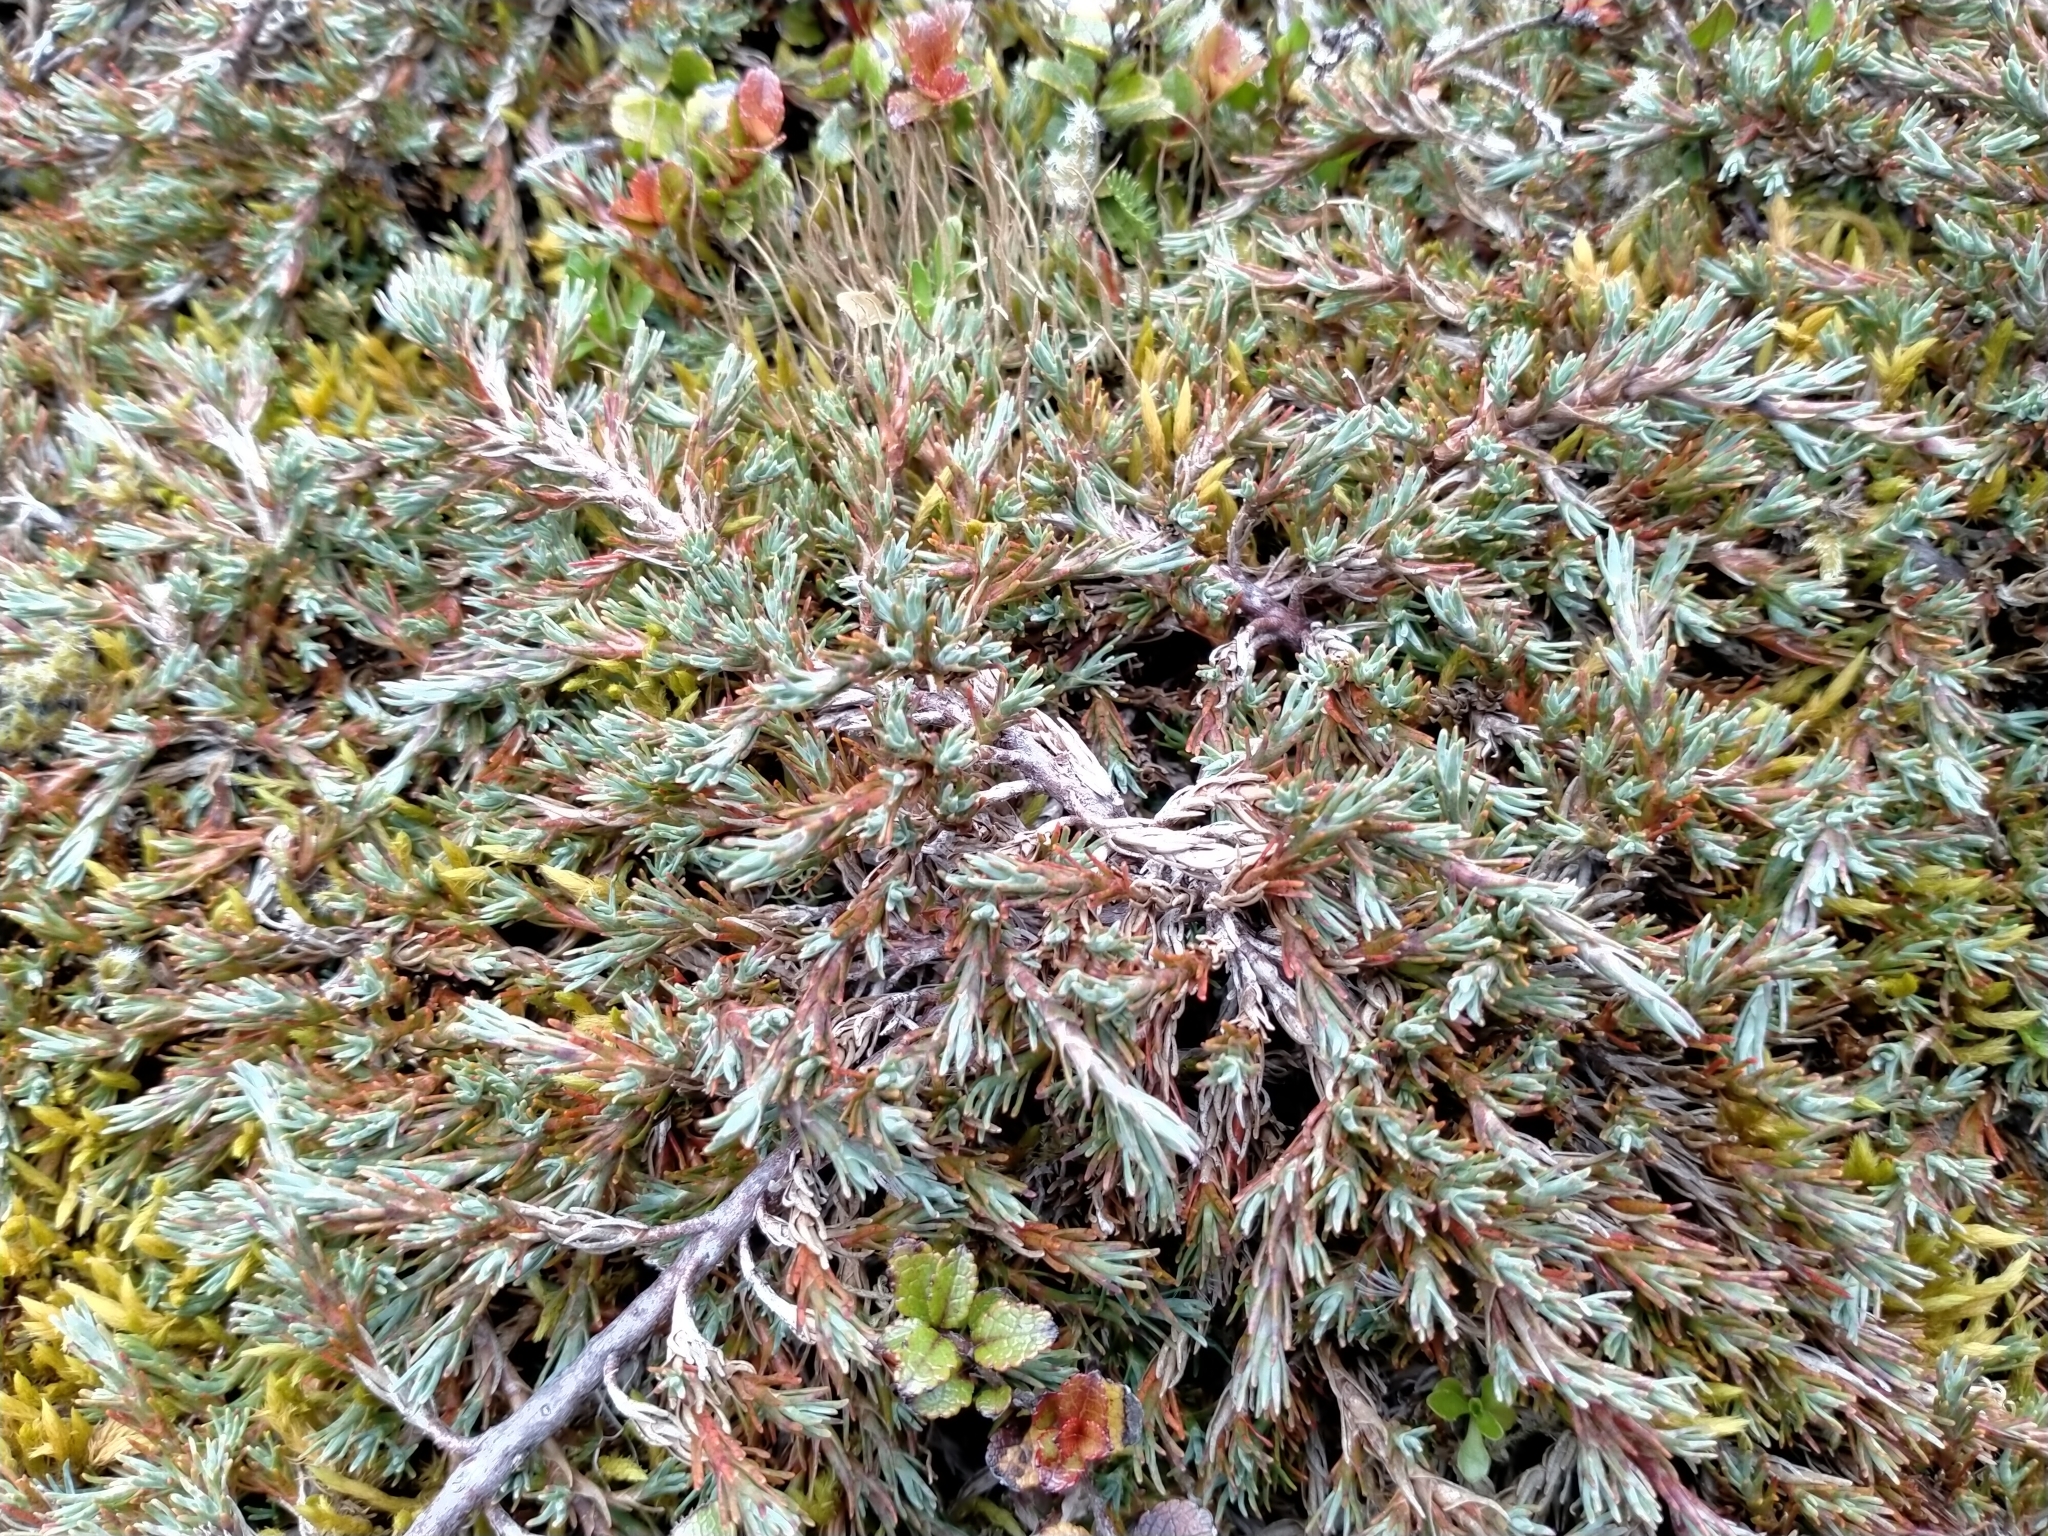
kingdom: Plantae
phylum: Tracheophyta
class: Magnoliopsida
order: Ericales
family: Ericaceae
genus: Dracophyllum
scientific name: Dracophyllum prostratum
